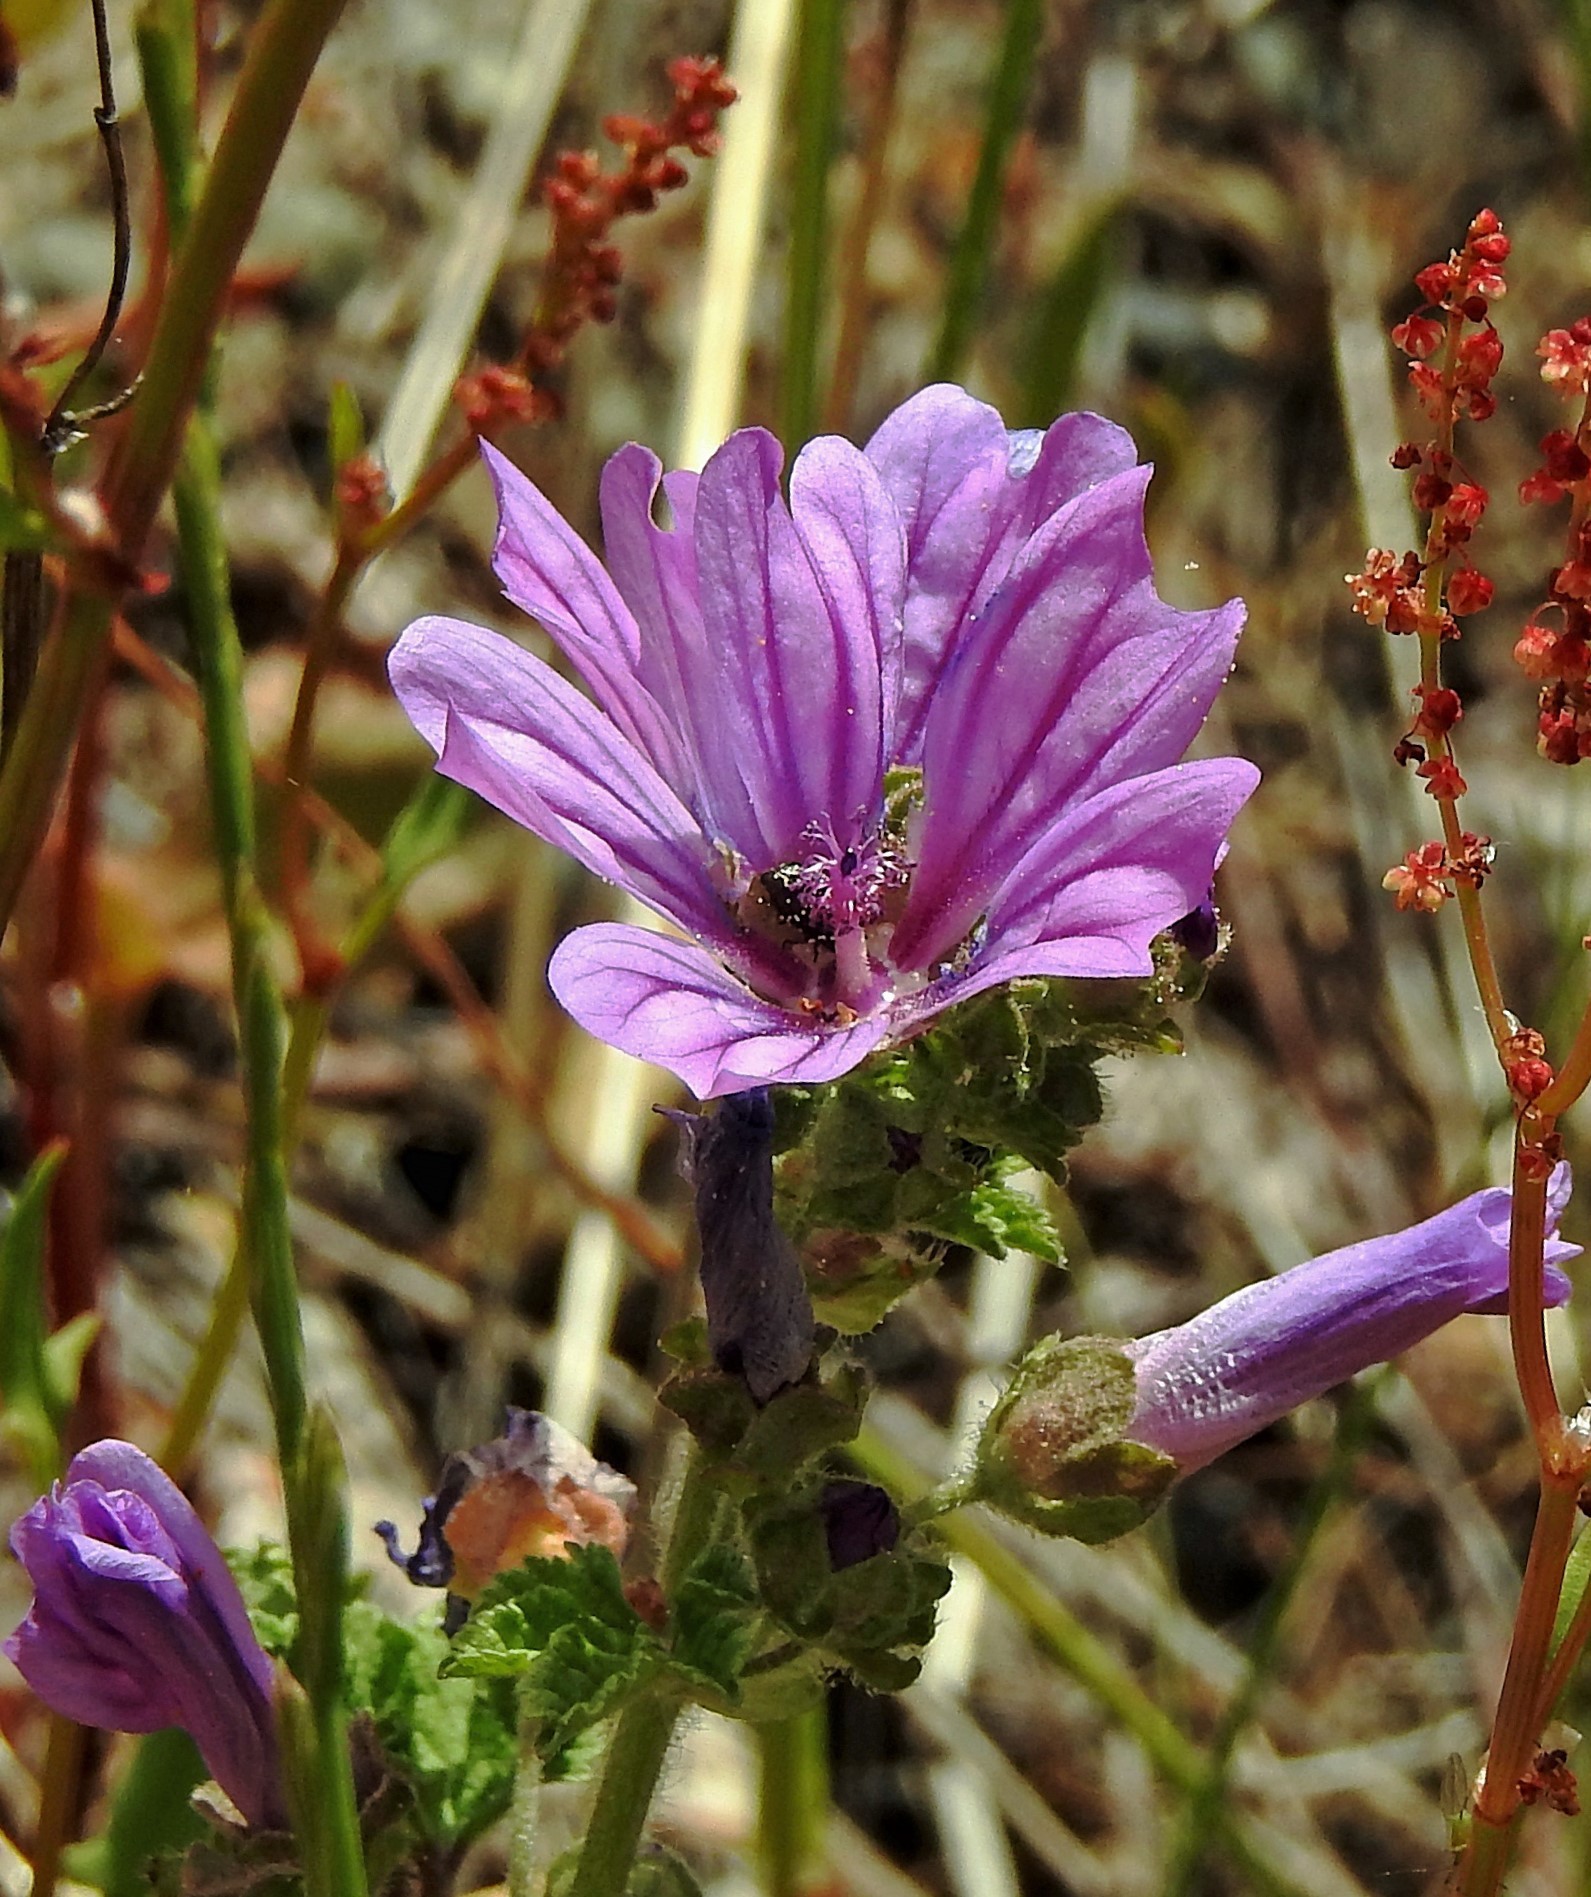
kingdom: Plantae
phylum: Tracheophyta
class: Magnoliopsida
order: Malvales
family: Malvaceae
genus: Malva
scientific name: Malva sylvestris
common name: Common mallow
